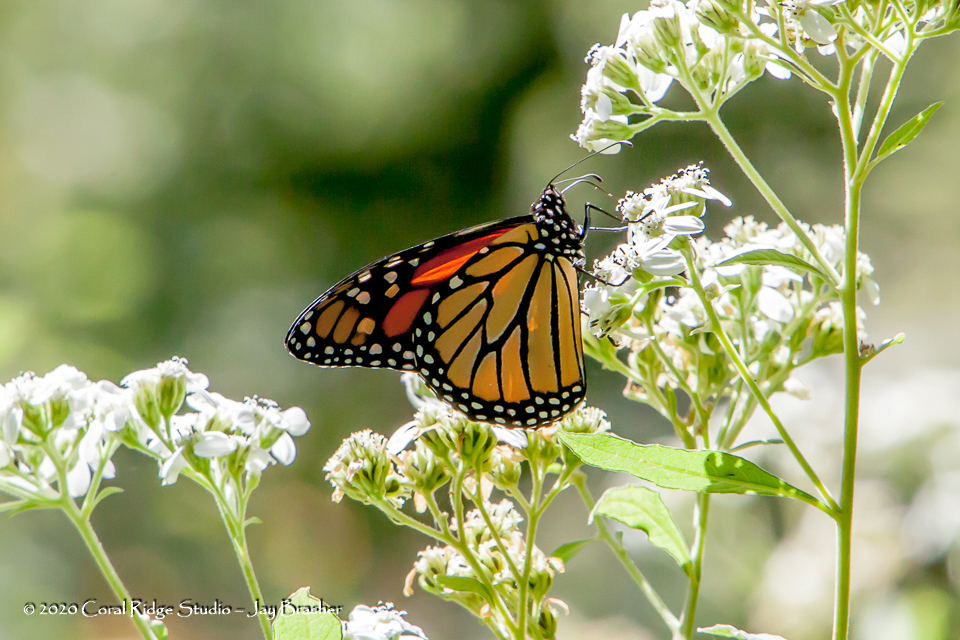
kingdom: Animalia
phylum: Arthropoda
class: Insecta
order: Lepidoptera
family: Nymphalidae
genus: Danaus
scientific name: Danaus plexippus
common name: Monarch
